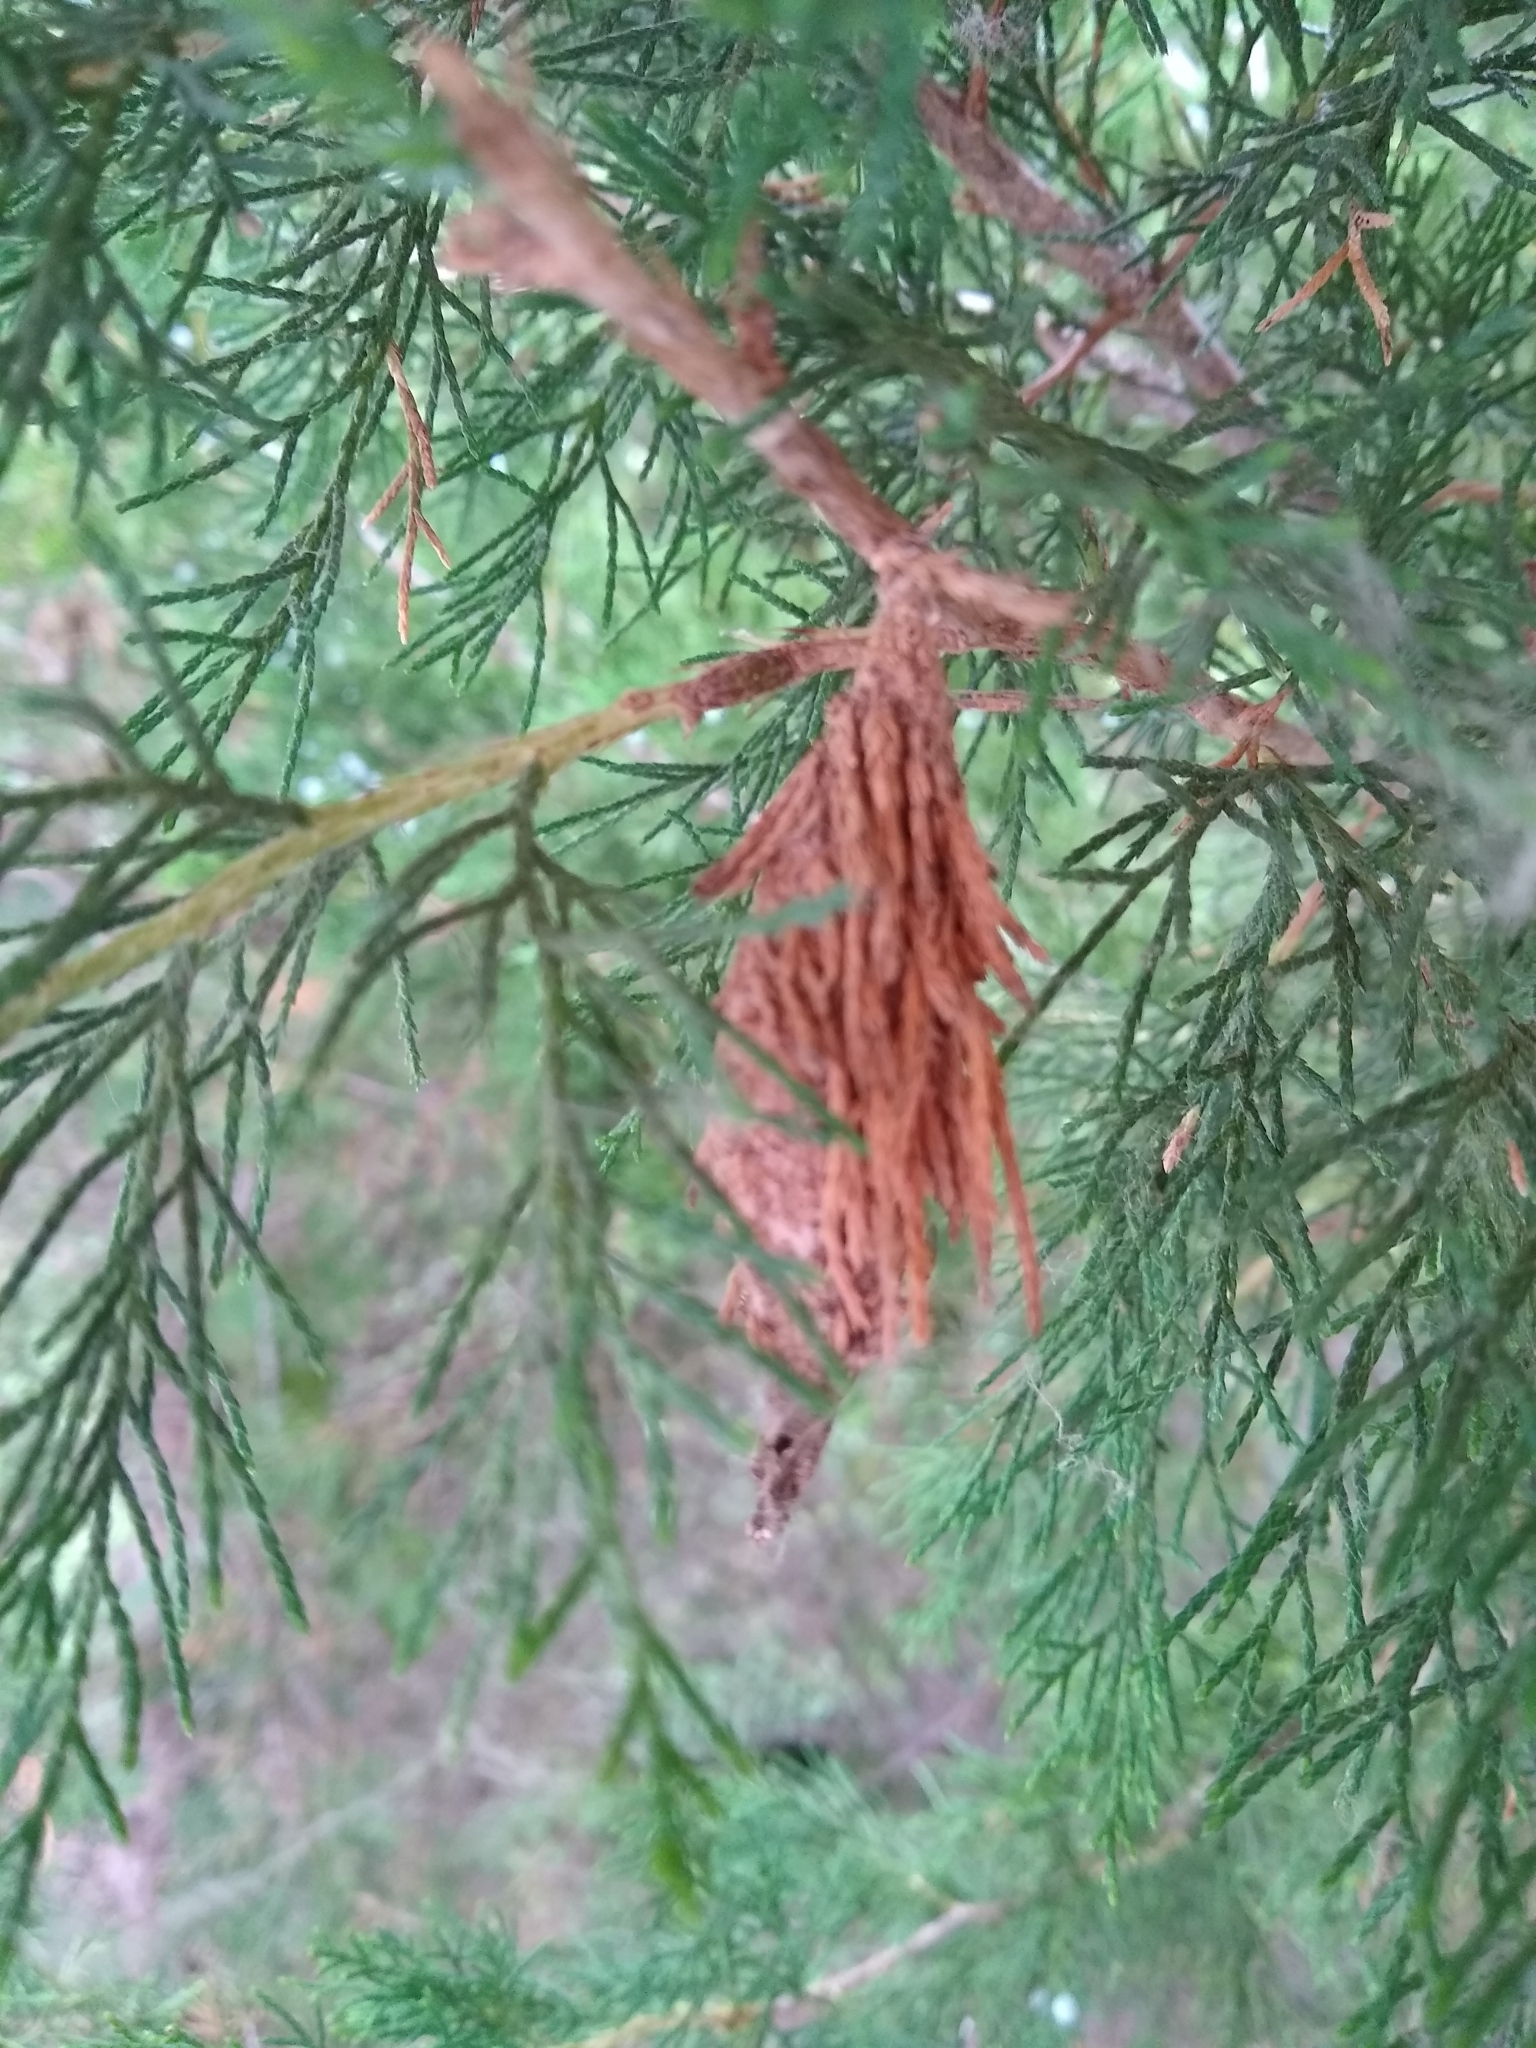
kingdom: Animalia
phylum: Arthropoda
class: Insecta
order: Lepidoptera
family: Psychidae
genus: Thyridopteryx
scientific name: Thyridopteryx ephemeraeformis
